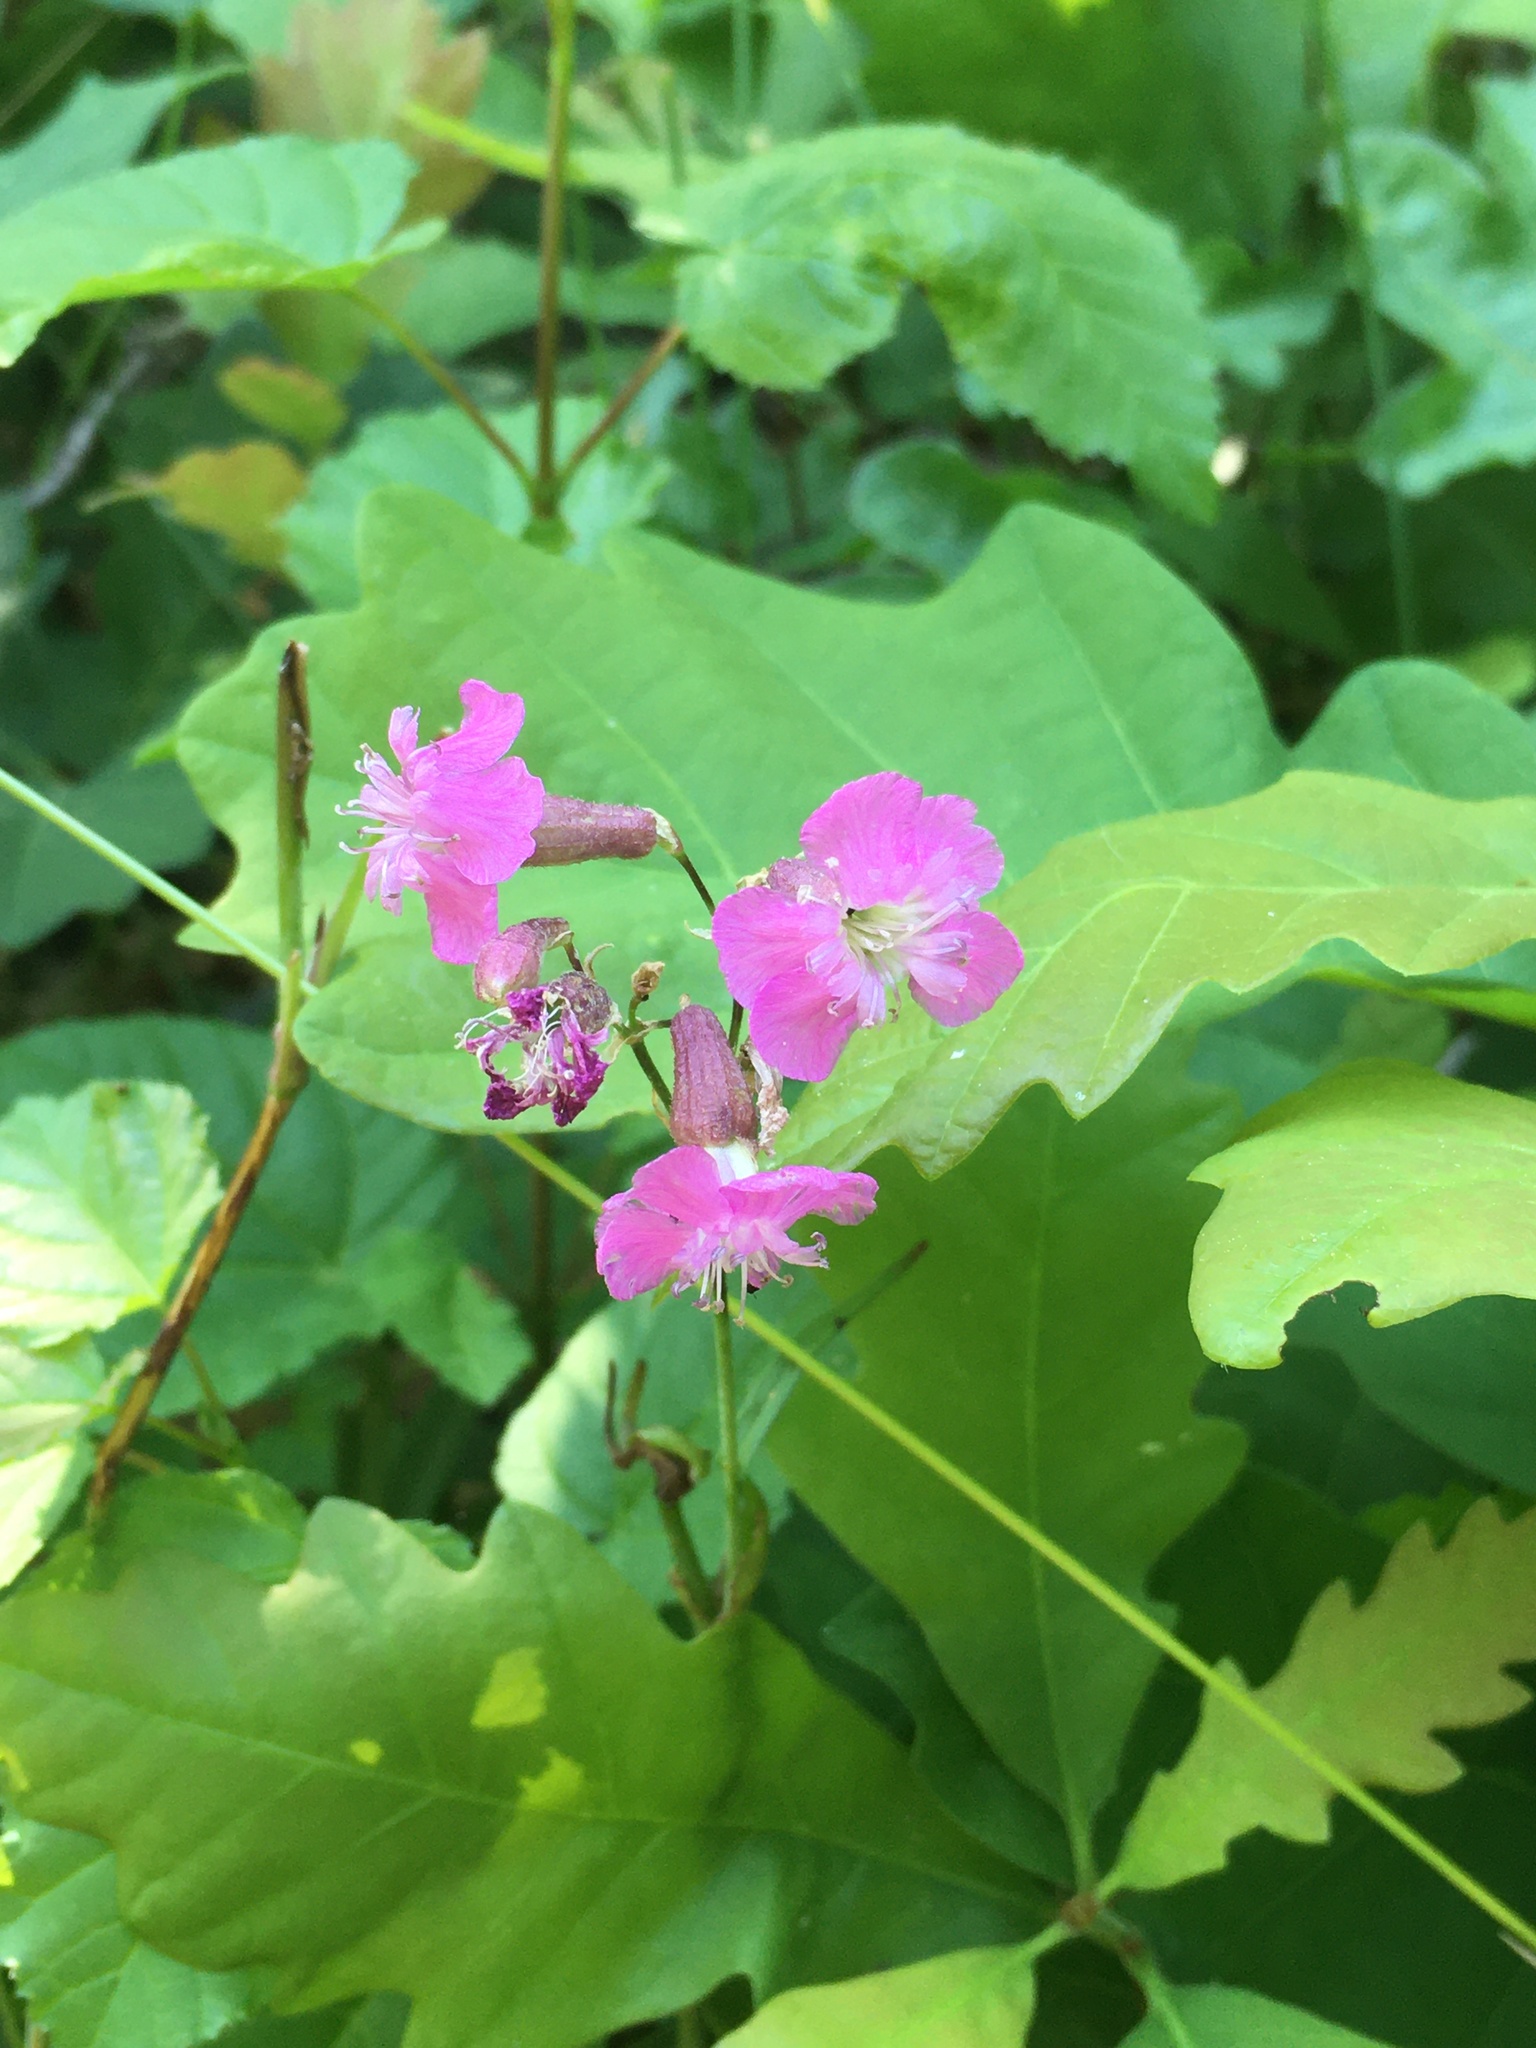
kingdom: Plantae
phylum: Tracheophyta
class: Magnoliopsida
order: Caryophyllales
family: Caryophyllaceae
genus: Viscaria
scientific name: Viscaria vulgaris
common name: Clammy campion
